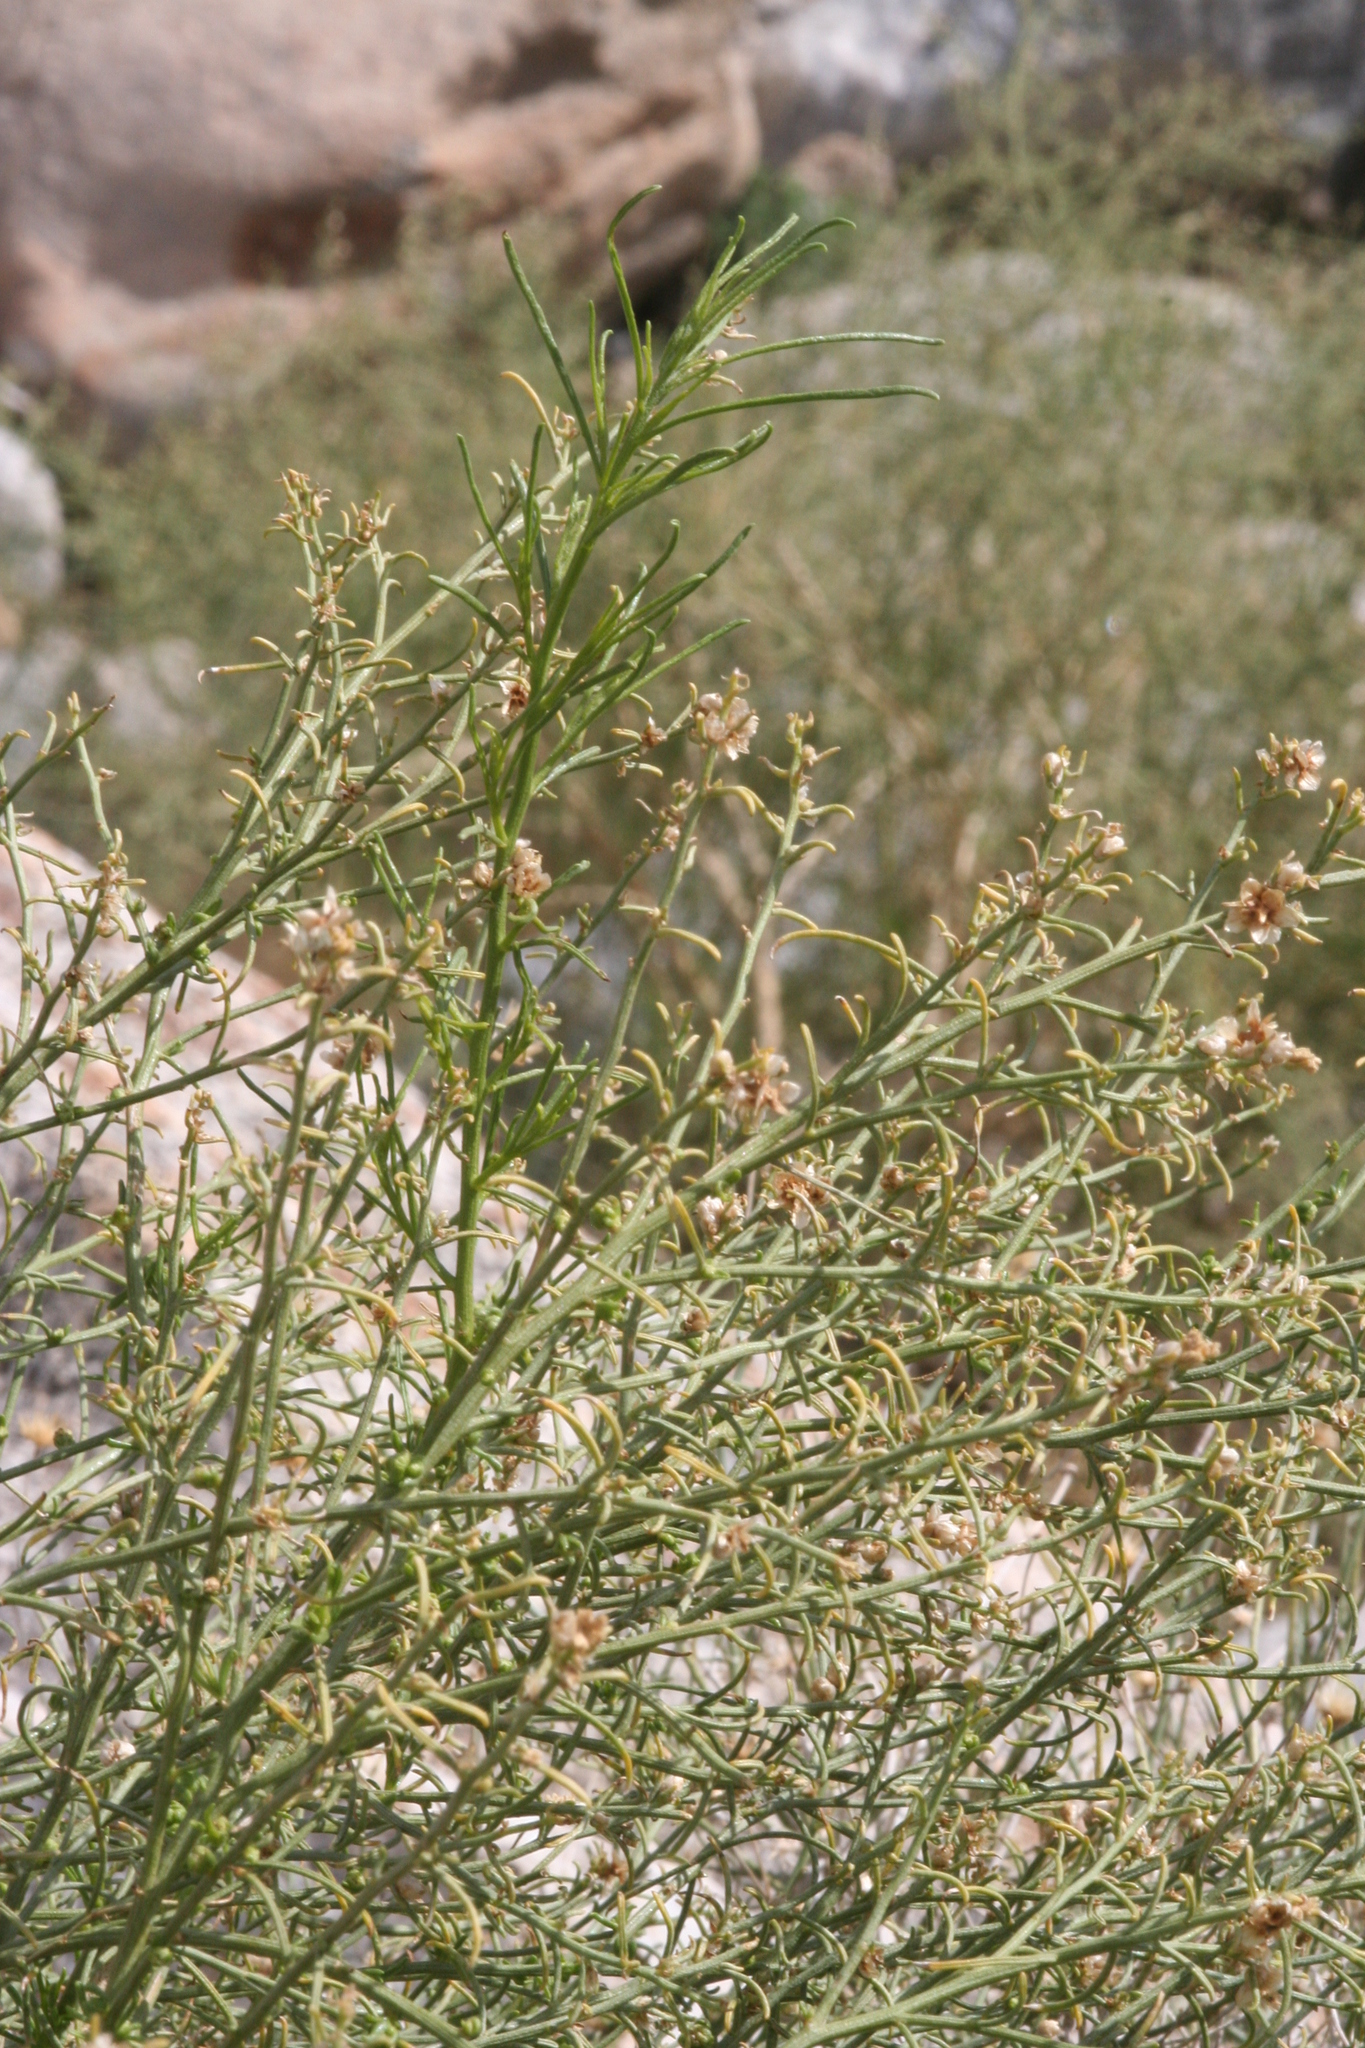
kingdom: Plantae
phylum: Tracheophyta
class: Magnoliopsida
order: Asterales
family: Asteraceae
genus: Bebbia
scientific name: Bebbia juncea
